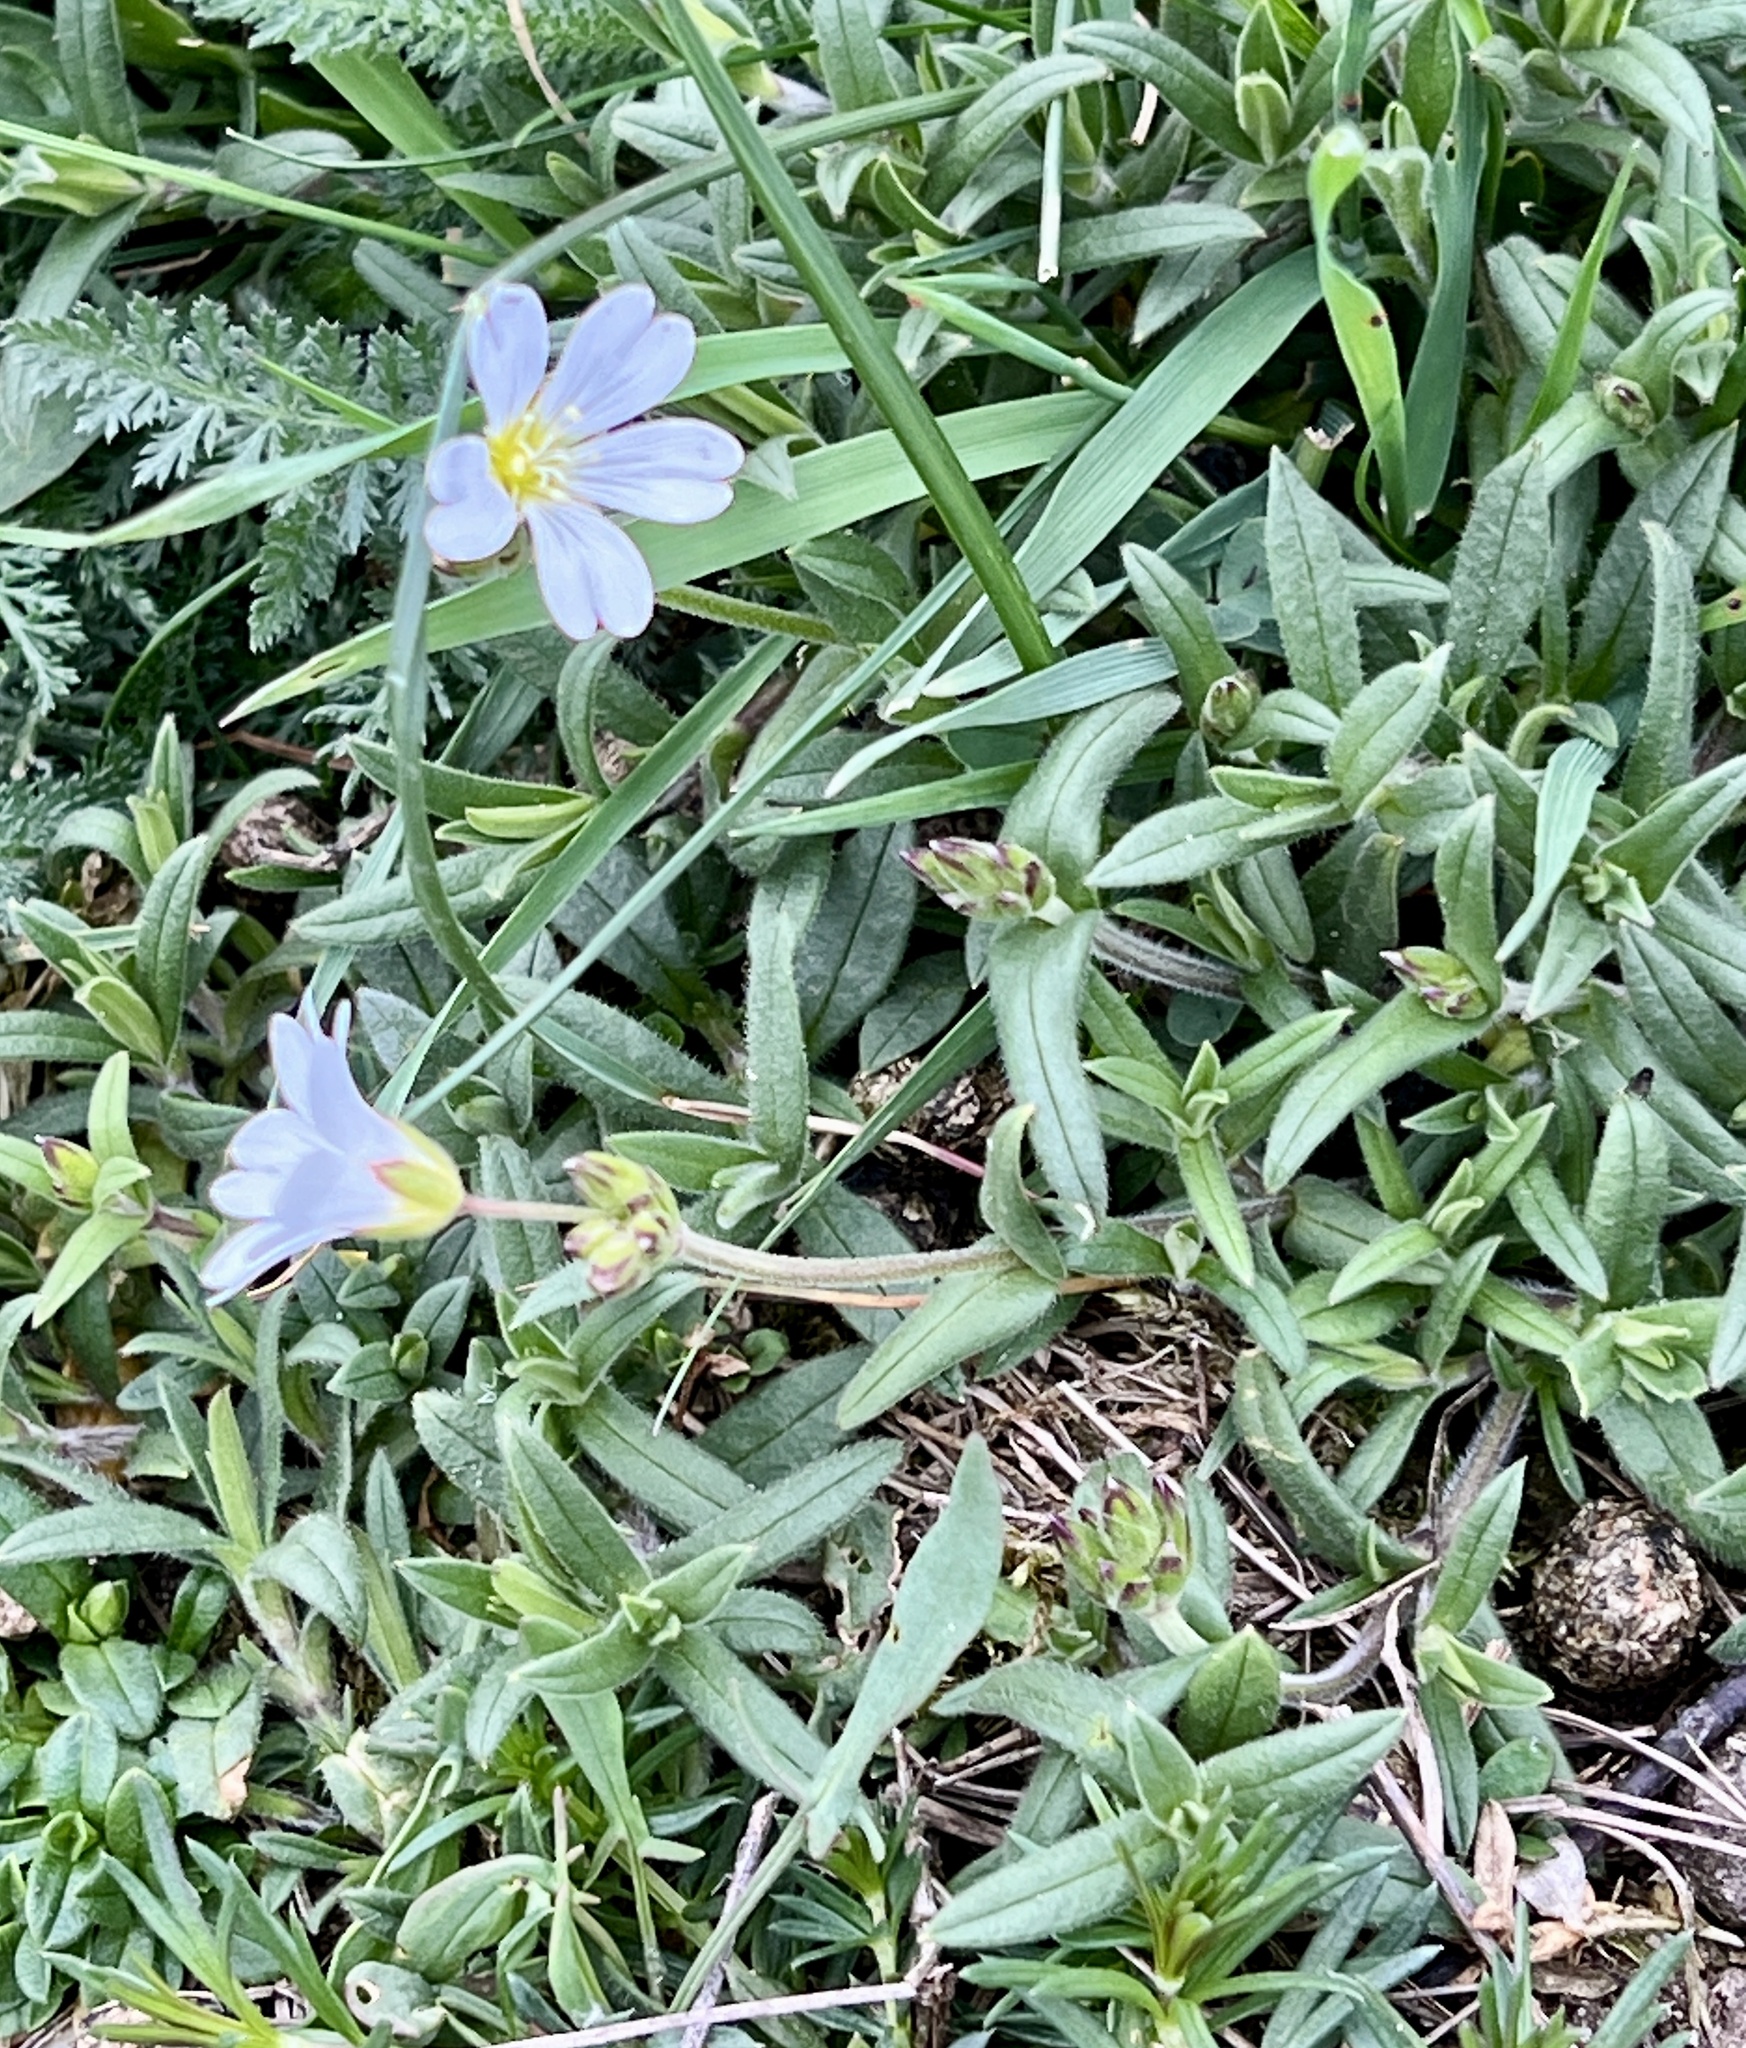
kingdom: Plantae
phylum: Tracheophyta
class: Magnoliopsida
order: Caryophyllales
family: Caryophyllaceae
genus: Cerastium
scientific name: Cerastium arvense
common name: Field mouse-ear
